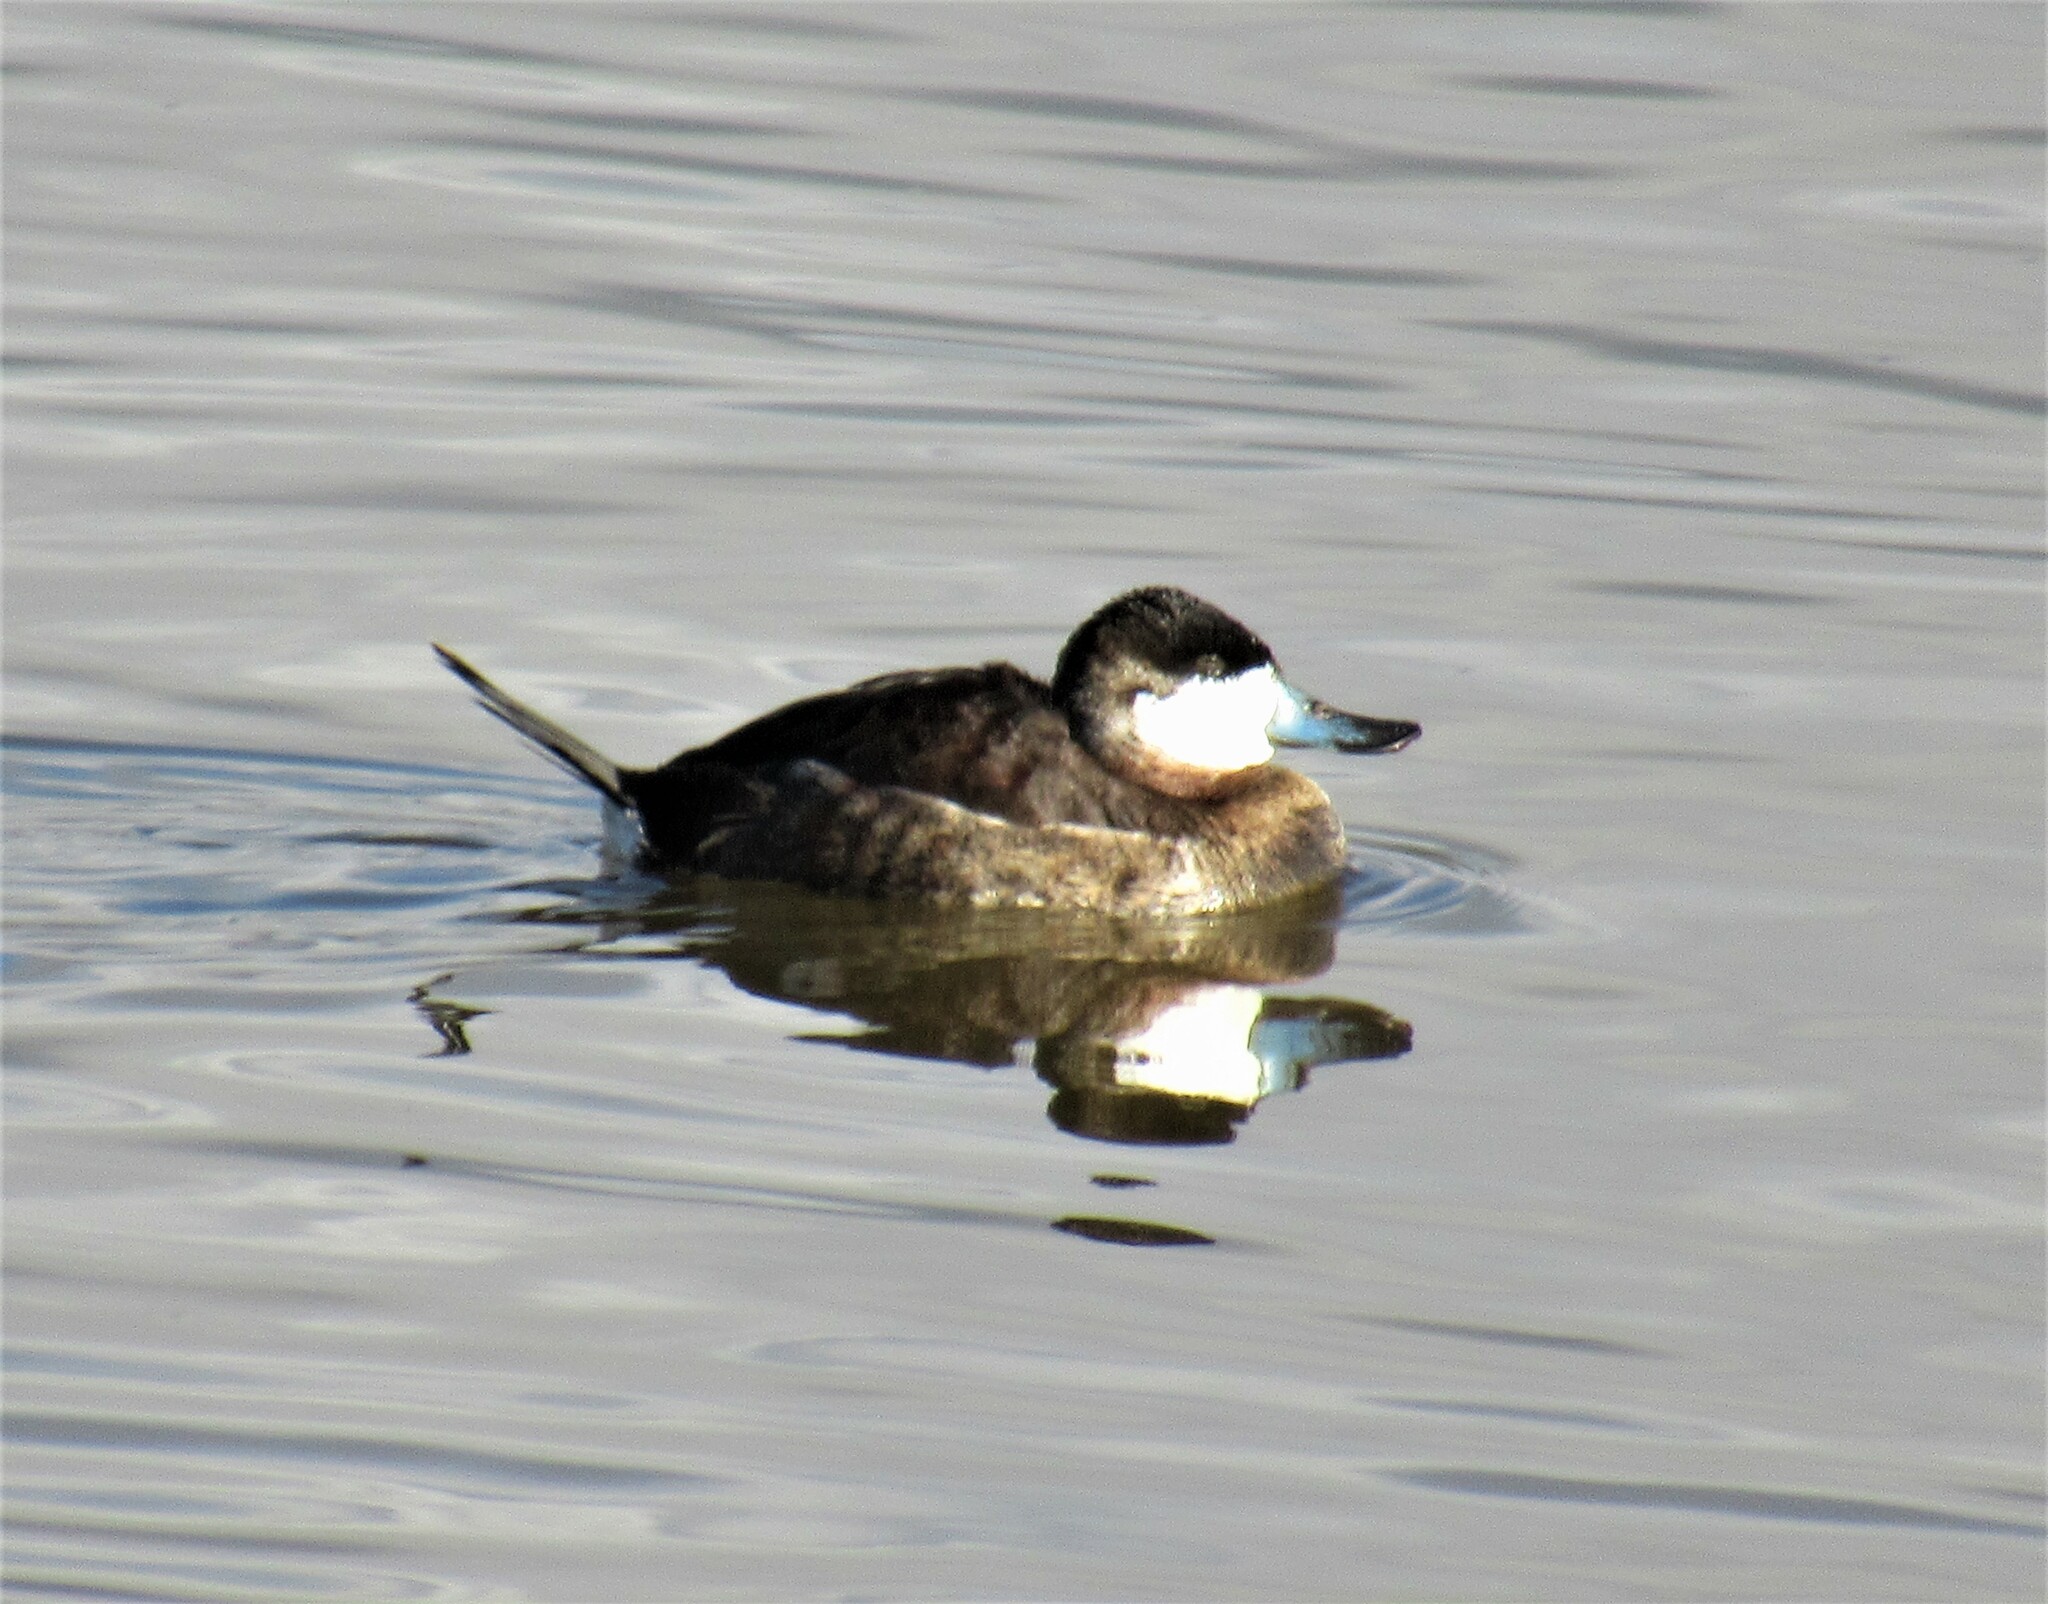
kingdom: Animalia
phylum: Chordata
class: Aves
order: Anseriformes
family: Anatidae
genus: Oxyura
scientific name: Oxyura jamaicensis
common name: Ruddy duck
